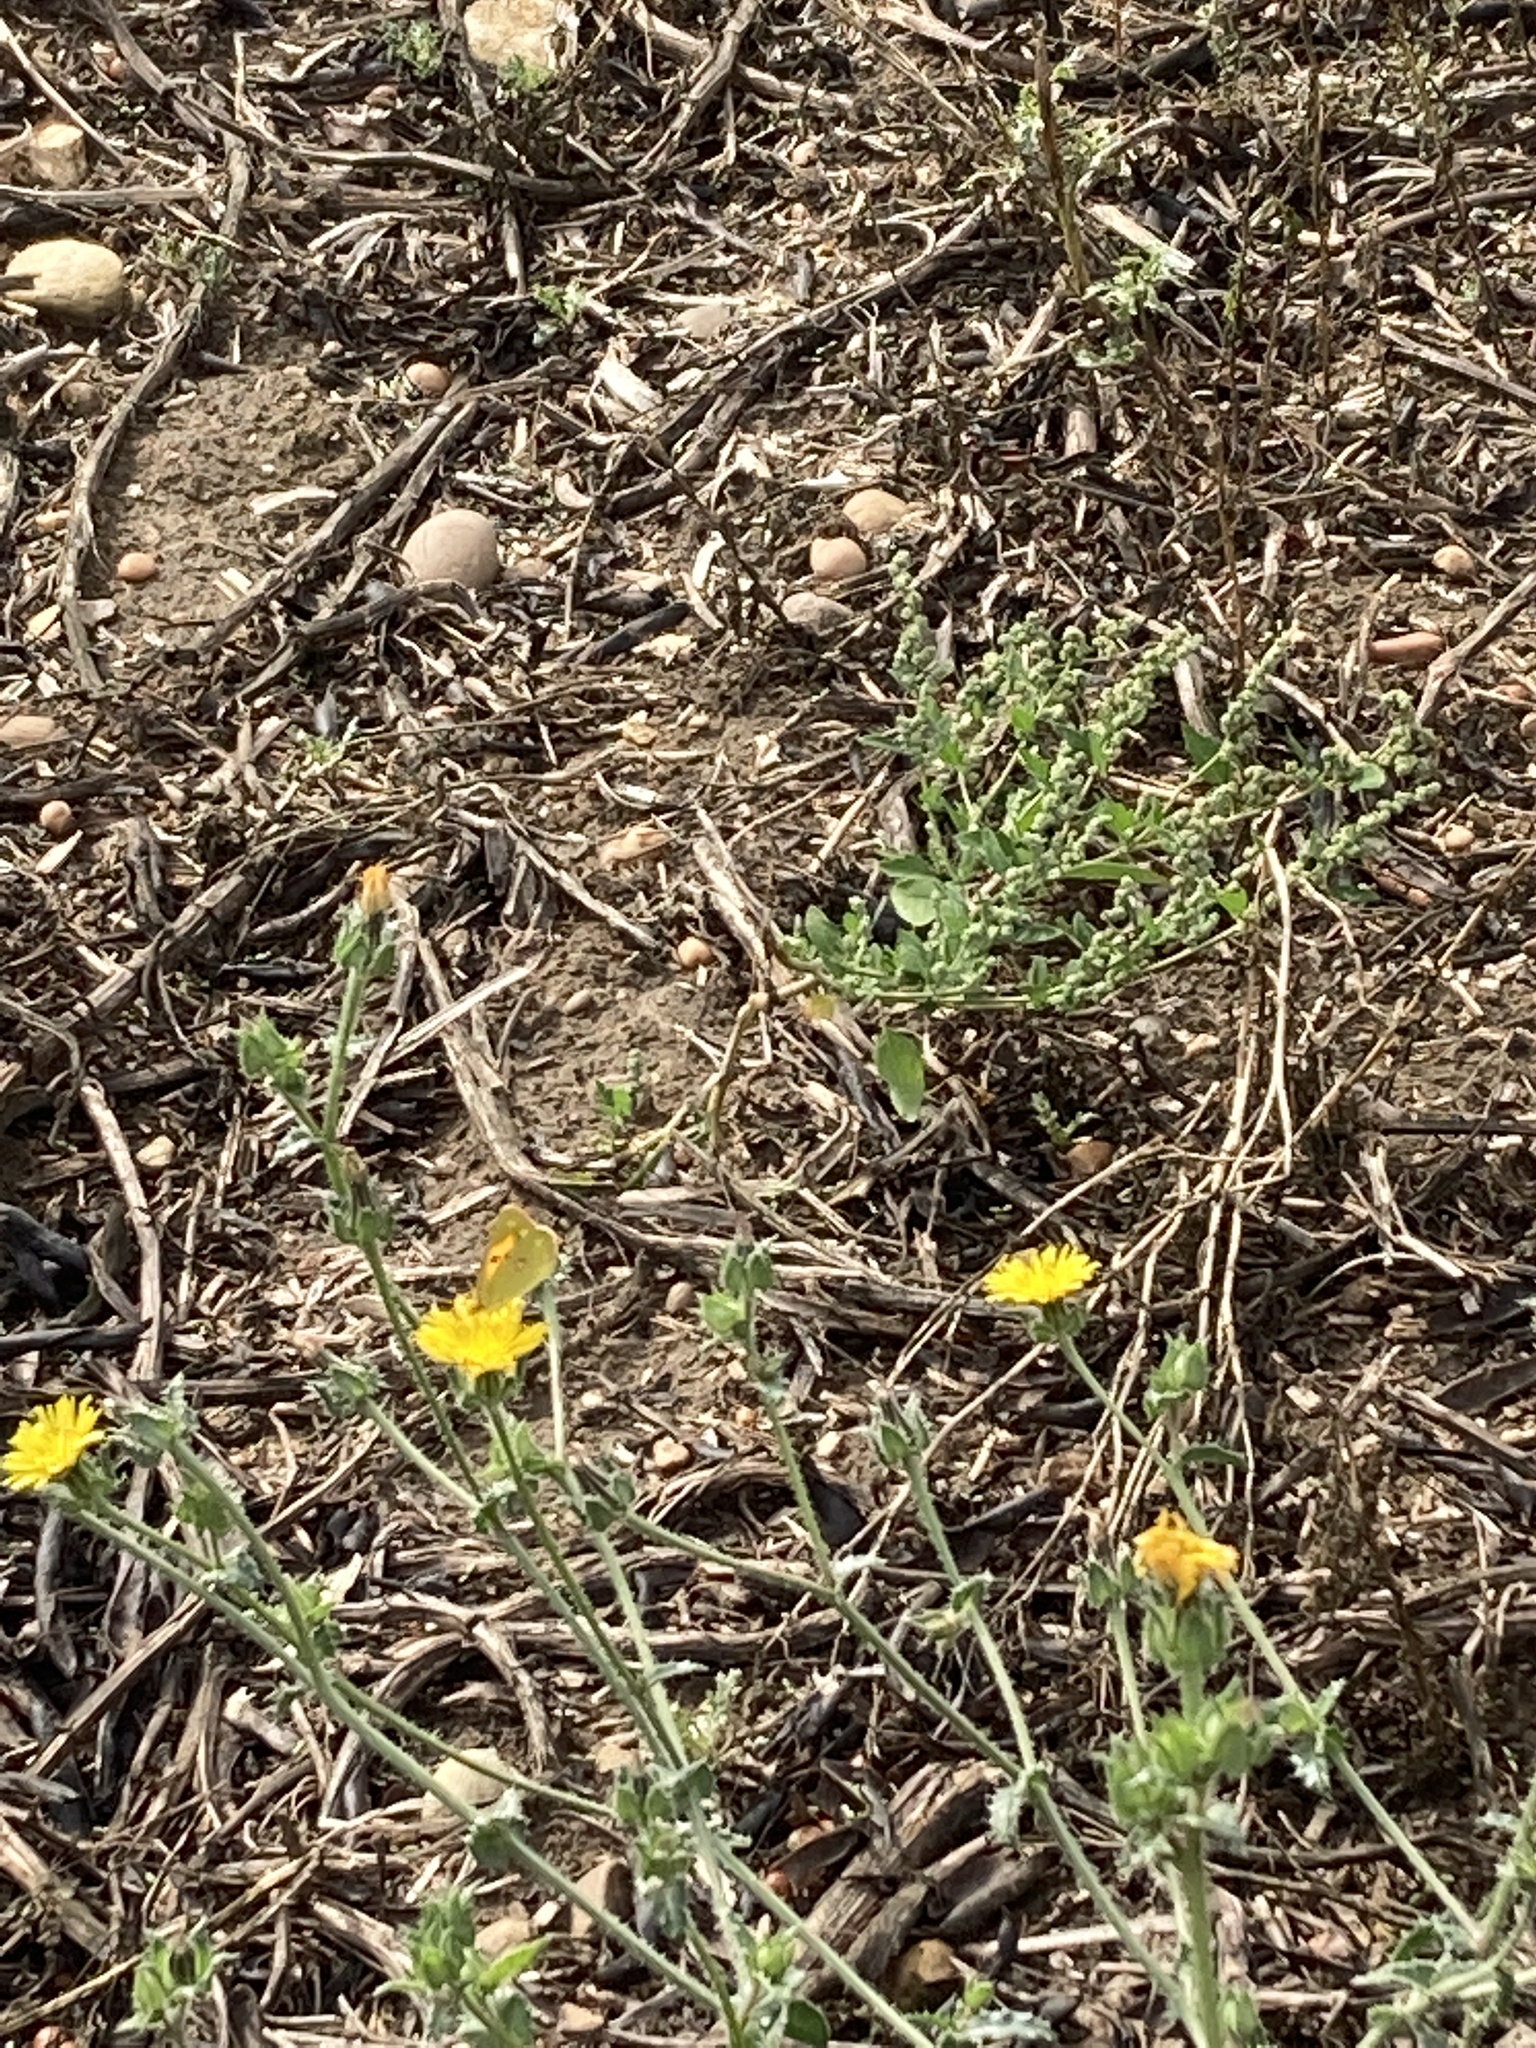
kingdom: Animalia
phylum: Arthropoda
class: Insecta
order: Lepidoptera
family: Pieridae
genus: Colias
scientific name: Colias croceus
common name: Clouded yellow
